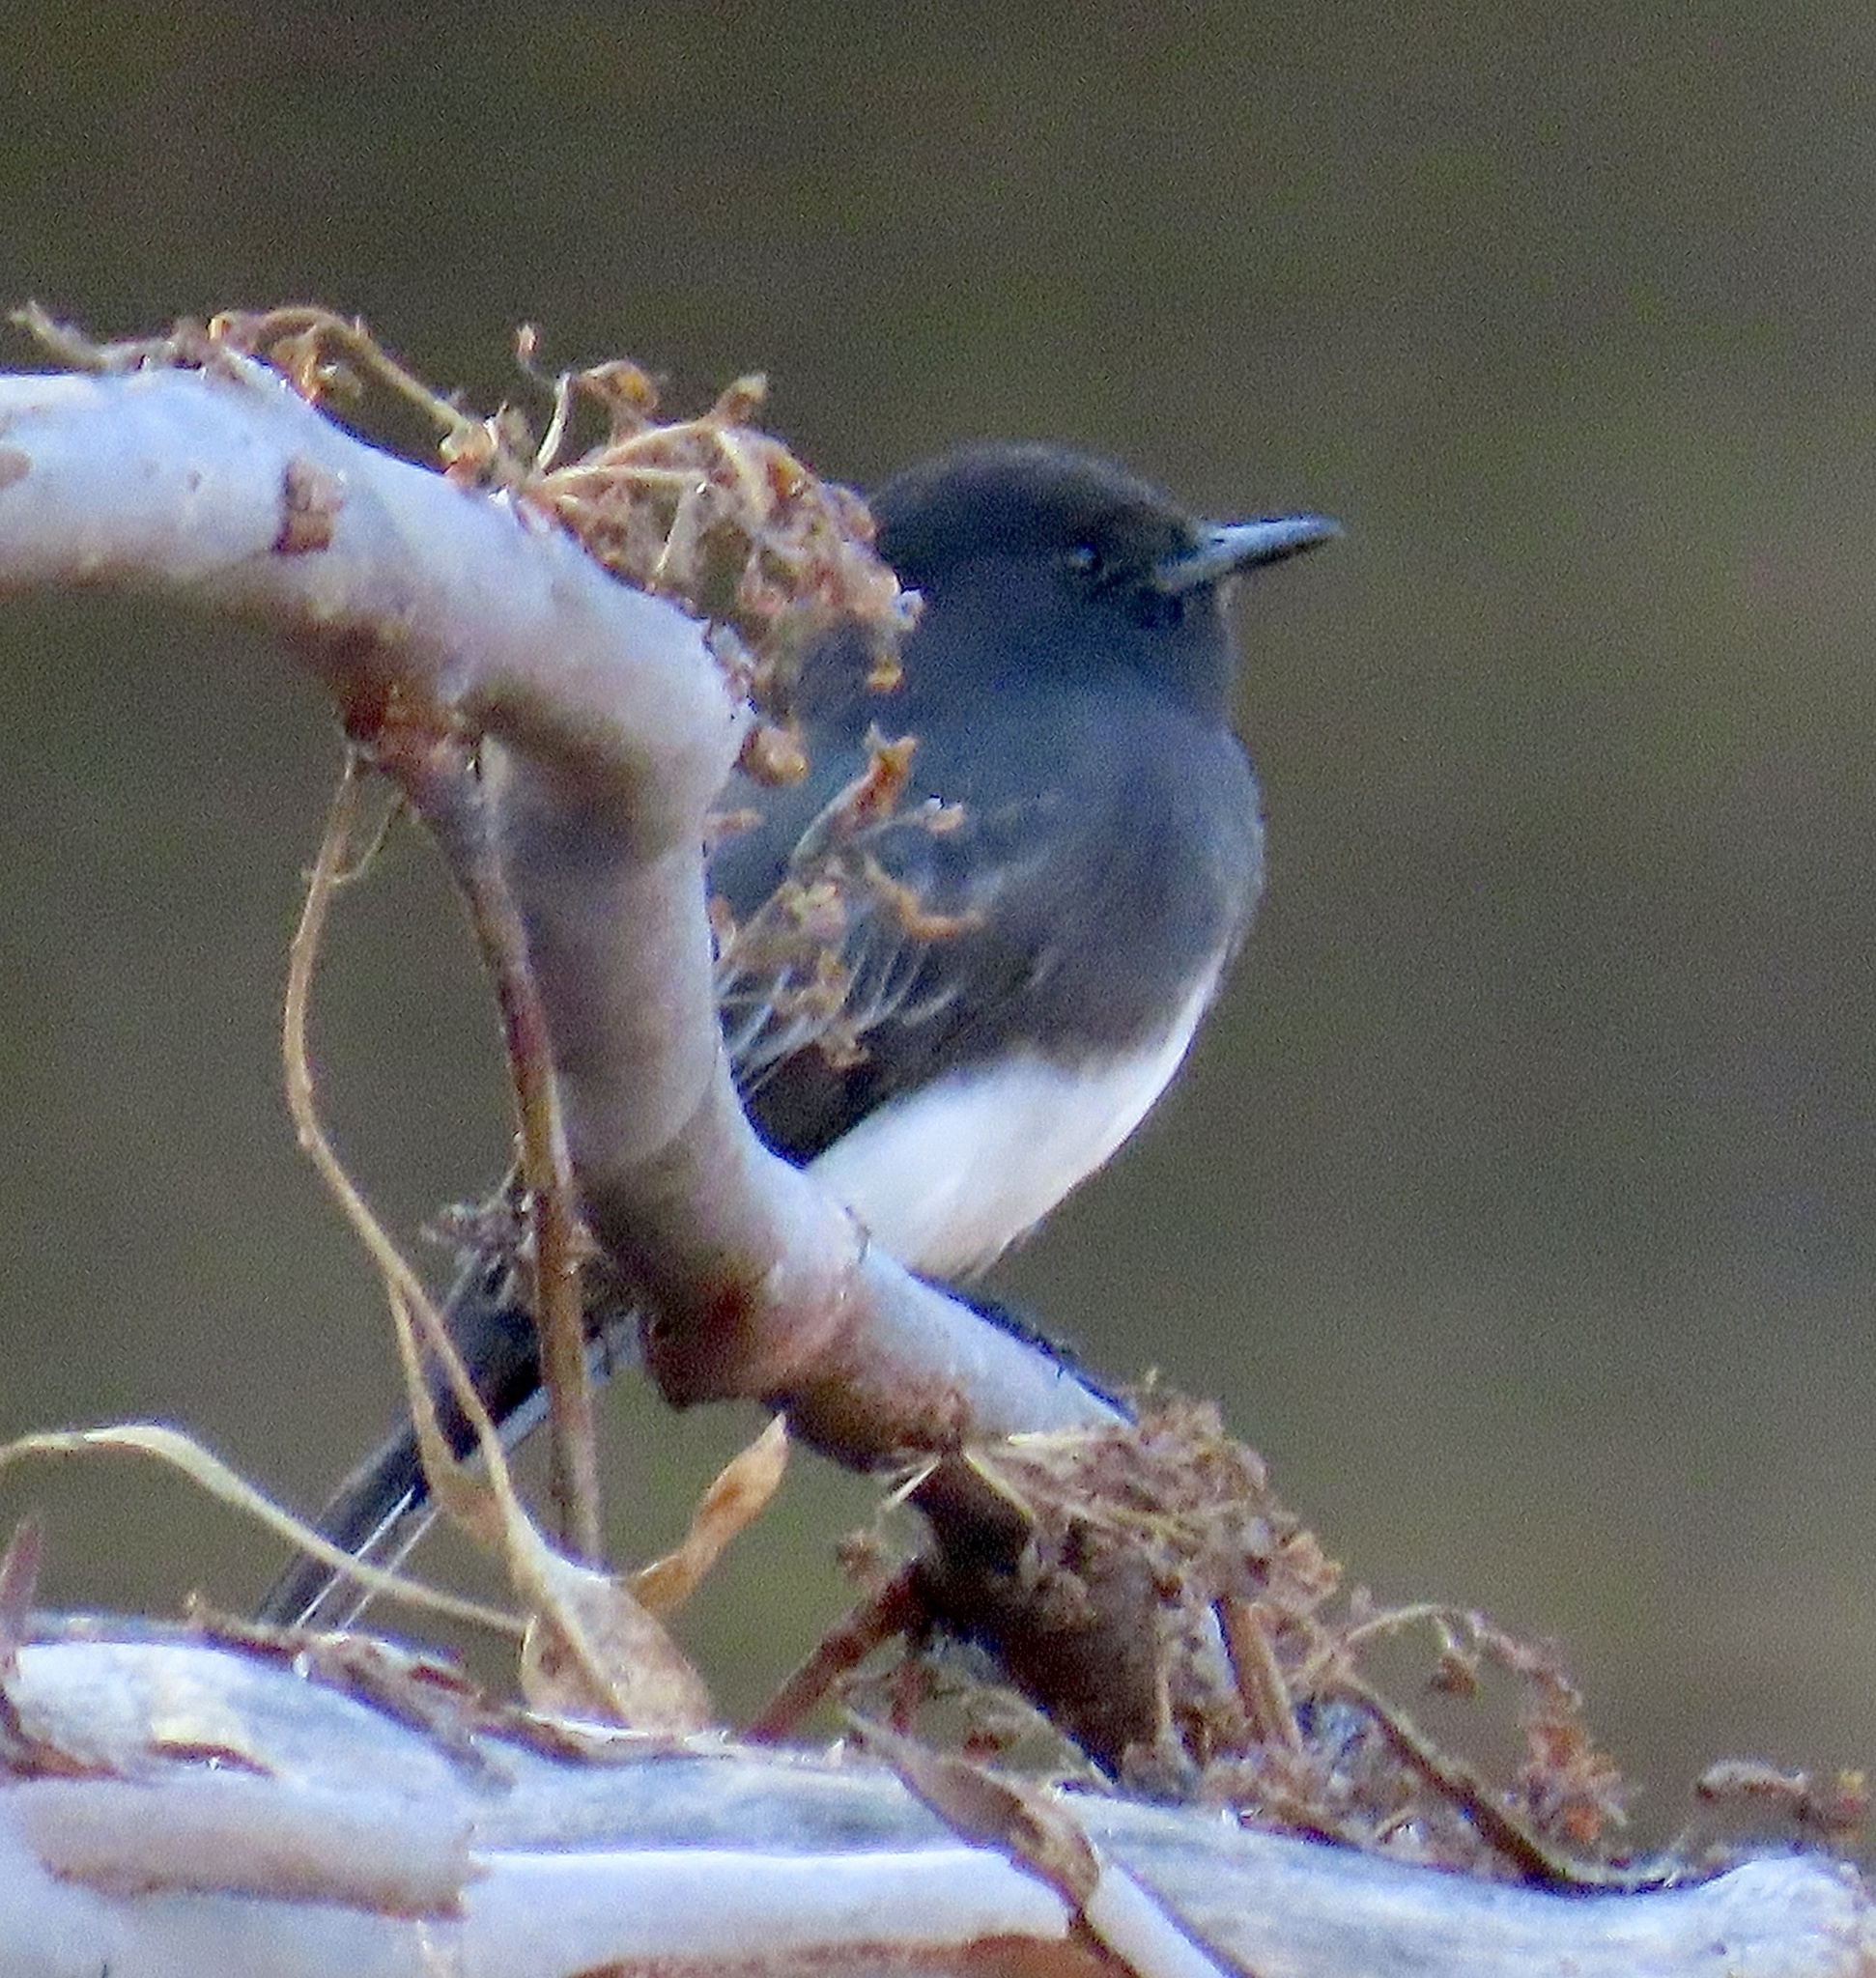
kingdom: Animalia
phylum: Chordata
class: Aves
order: Passeriformes
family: Tyrannidae
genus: Sayornis
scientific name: Sayornis nigricans
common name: Black phoebe
